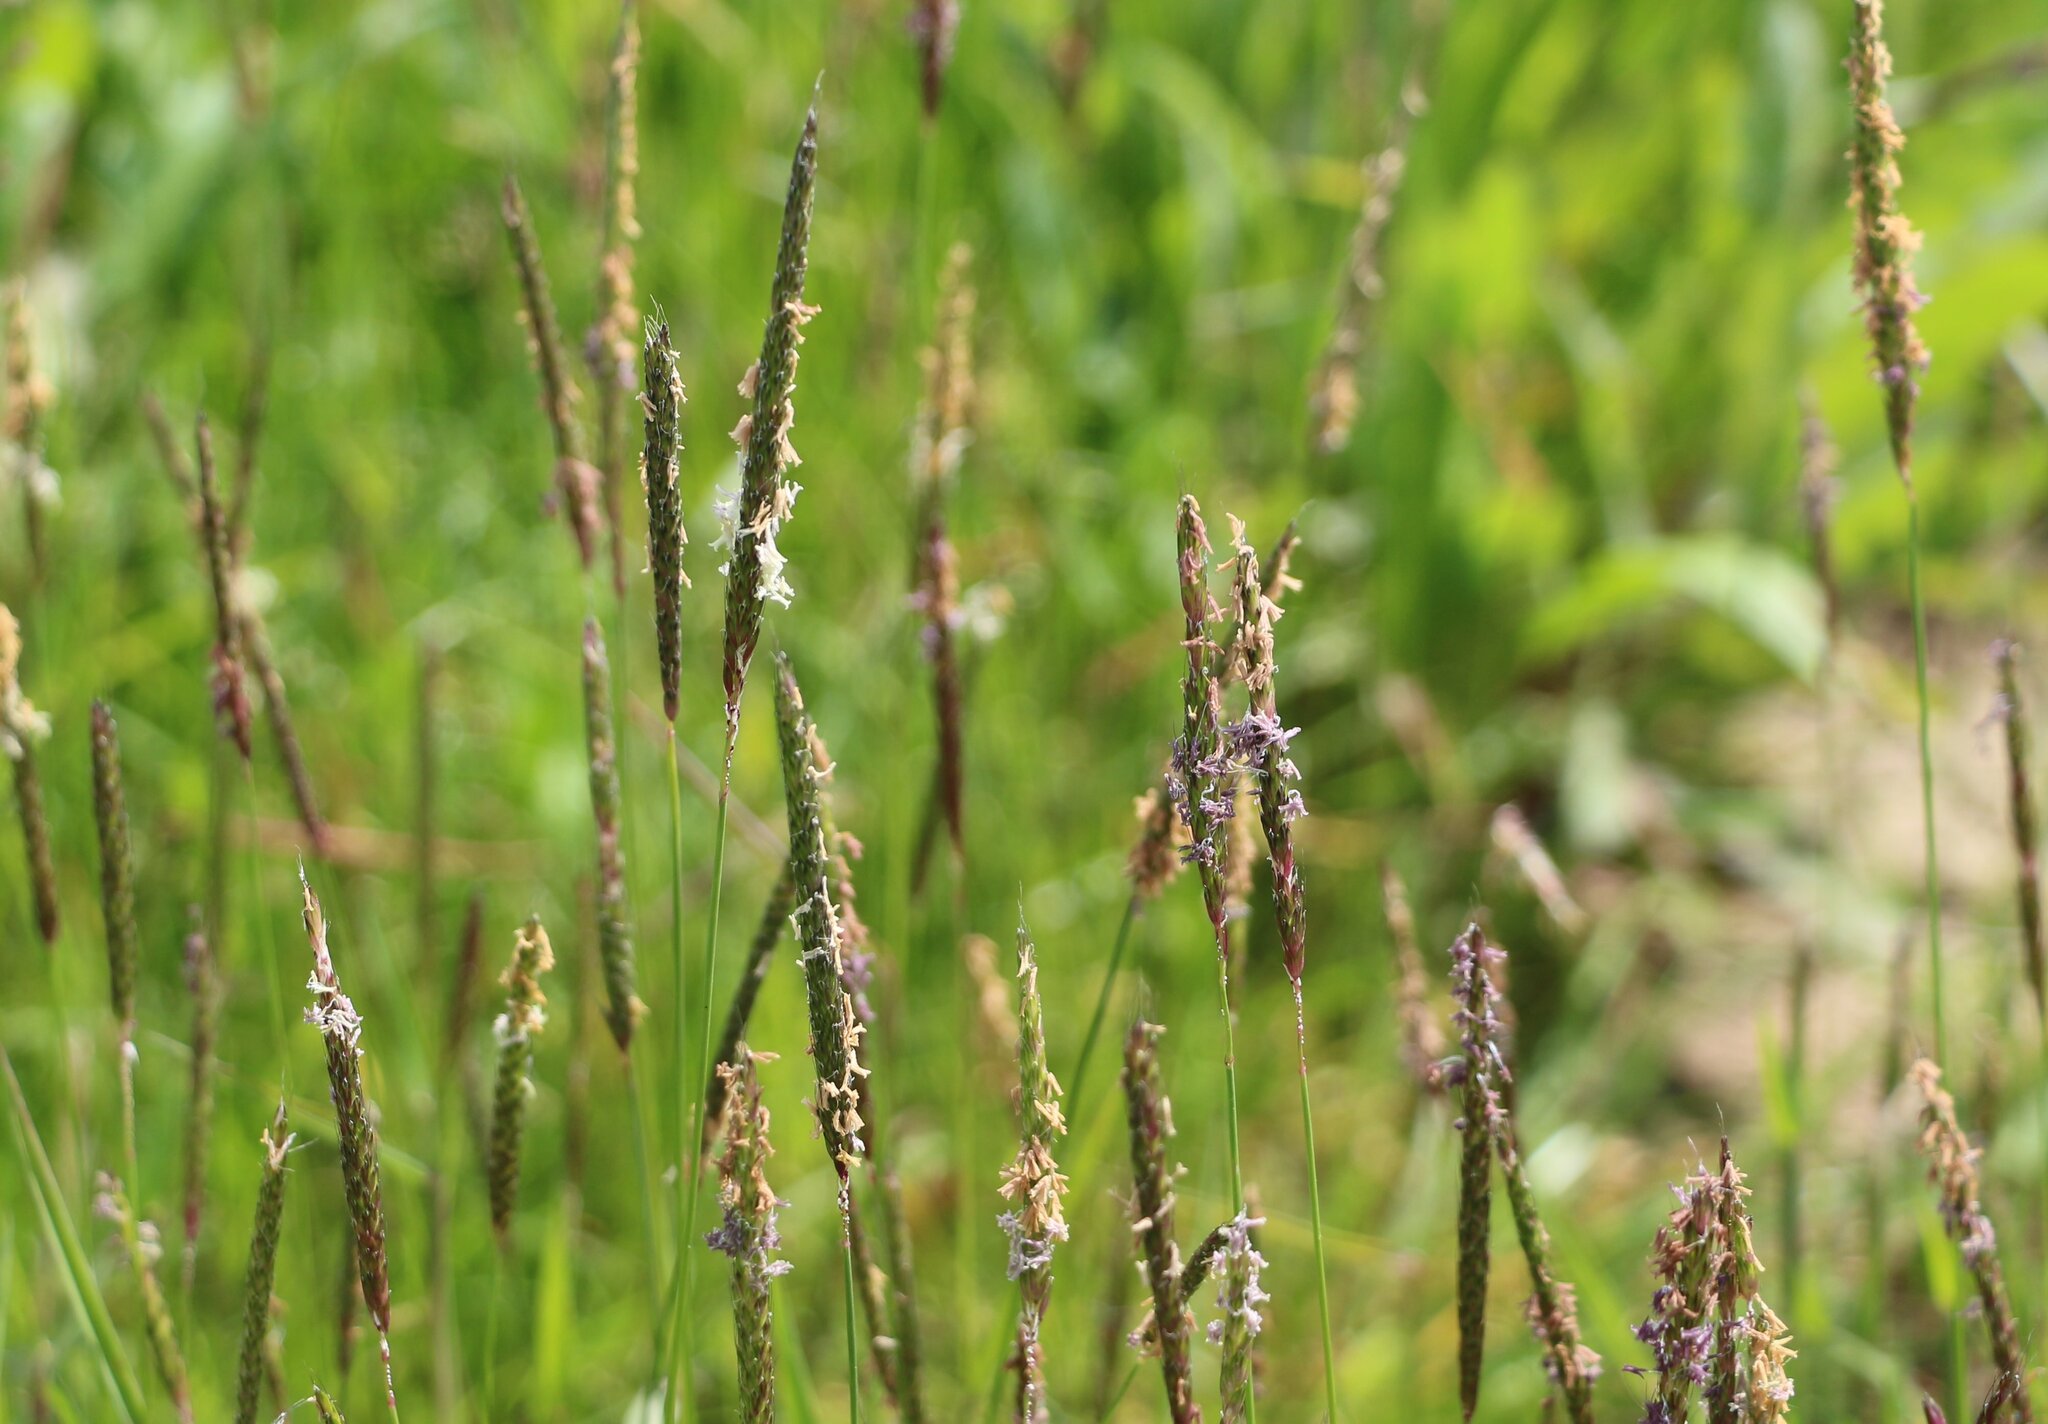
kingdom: Plantae
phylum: Tracheophyta
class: Liliopsida
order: Poales
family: Poaceae
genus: Alopecurus
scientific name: Alopecurus myosuroides
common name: Black-grass
